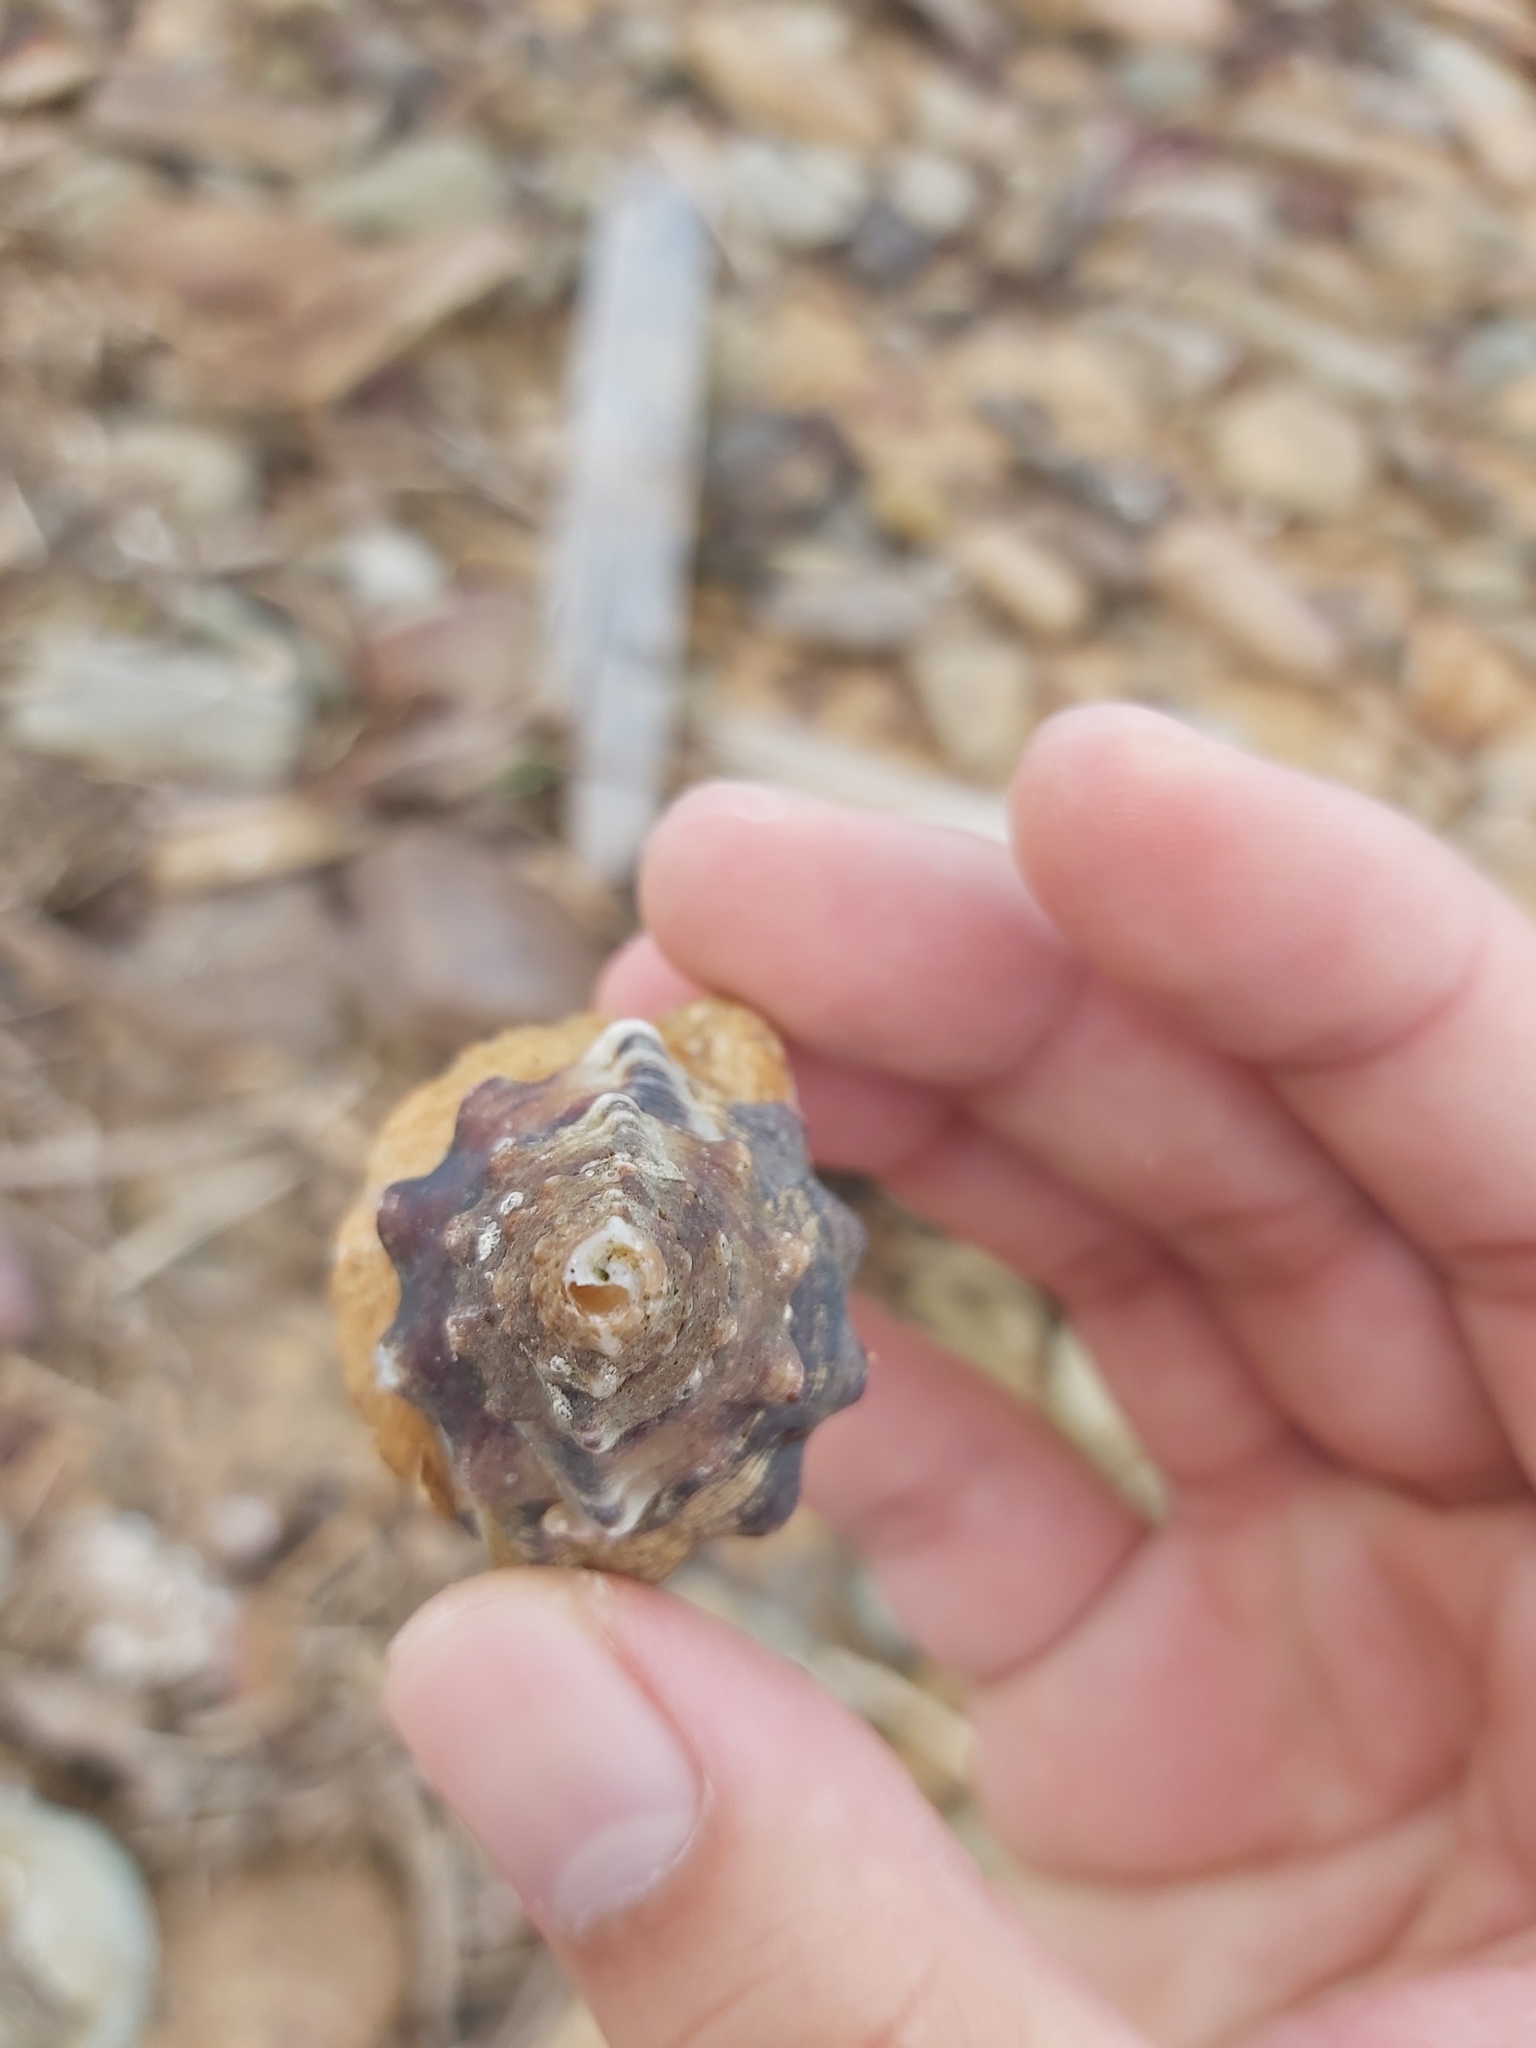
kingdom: Animalia
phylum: Mollusca
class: Gastropoda
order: Littorinimorpha
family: Ranellidae
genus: Ranella
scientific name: Ranella australasia
